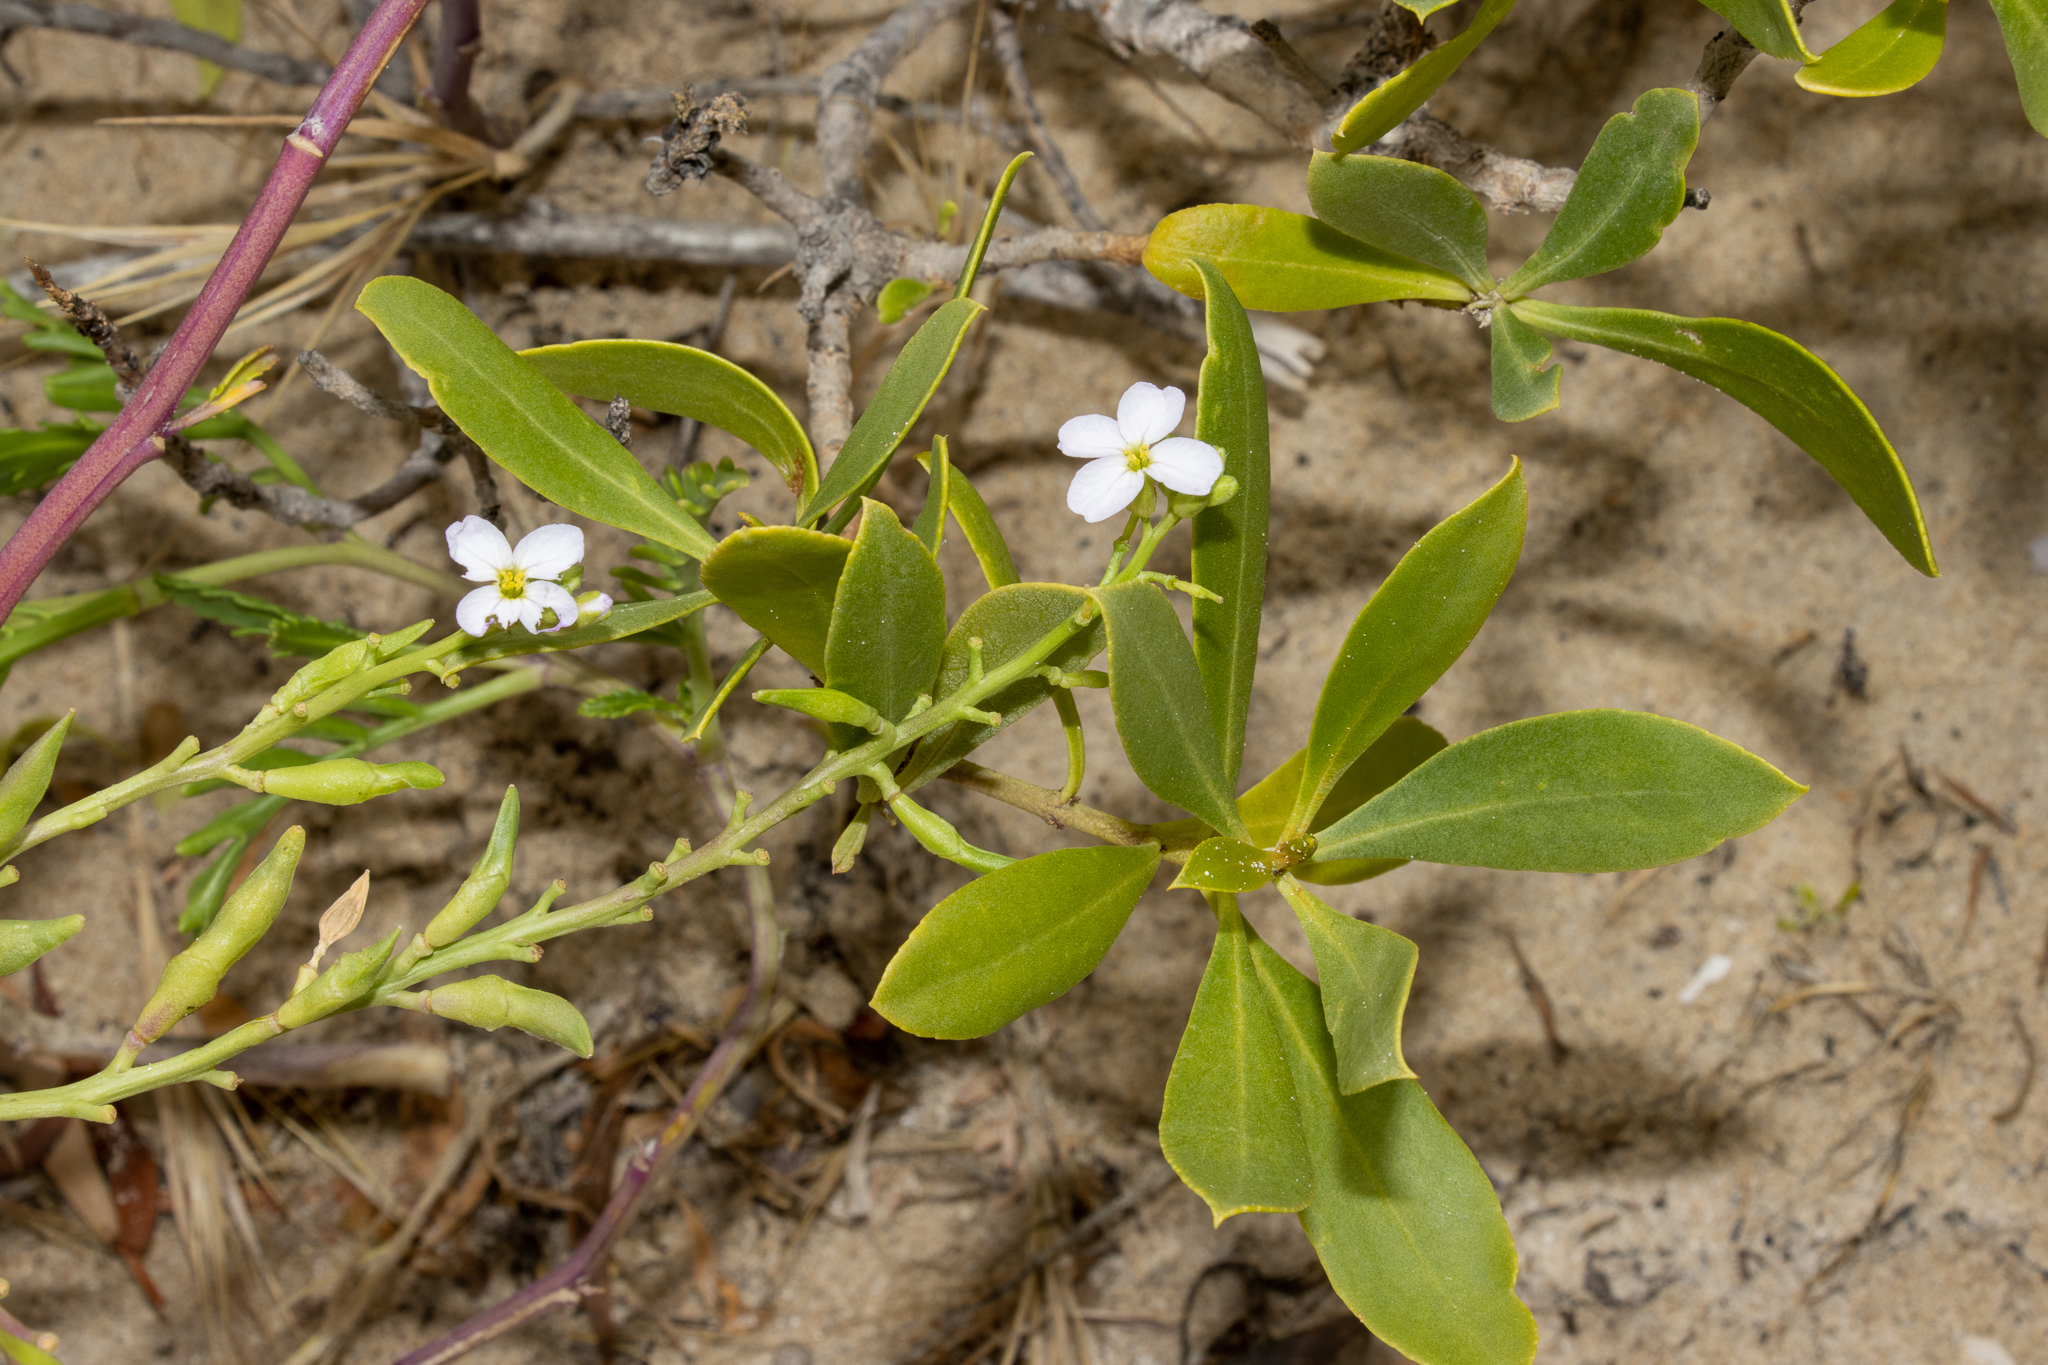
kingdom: Plantae
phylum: Tracheophyta
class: Magnoliopsida
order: Brassicales
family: Brassicaceae
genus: Cakile
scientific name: Cakile maritima
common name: Sea rocket
